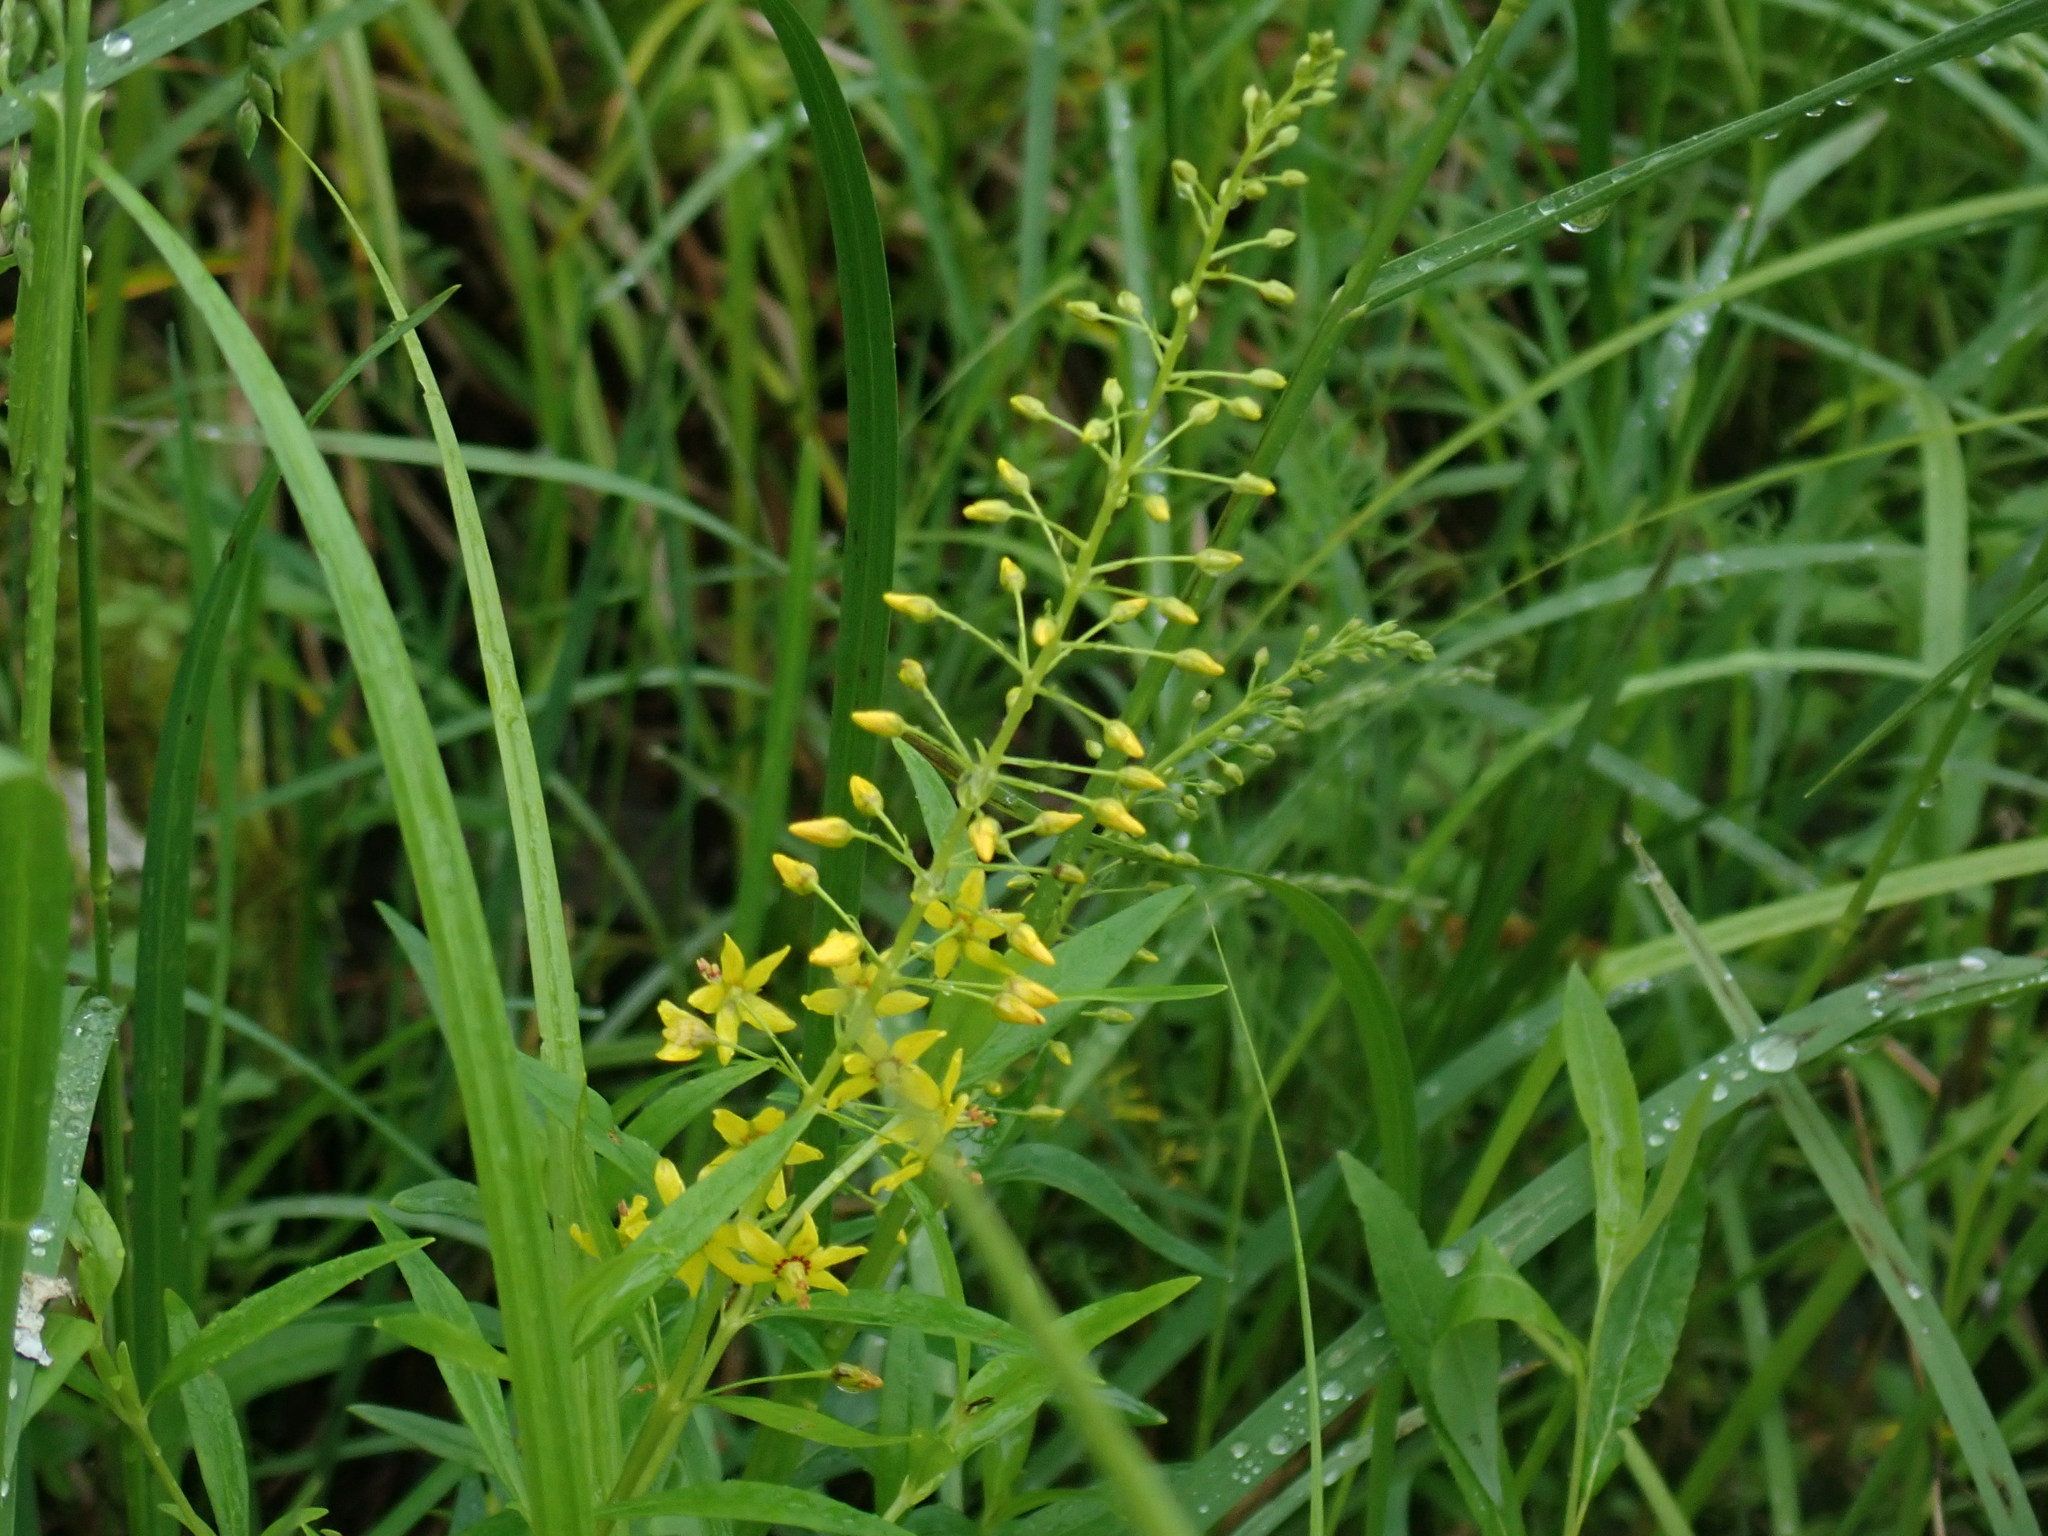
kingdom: Plantae
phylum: Tracheophyta
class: Magnoliopsida
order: Ericales
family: Primulaceae
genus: Lysimachia
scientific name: Lysimachia terrestris
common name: Lake loosestrife
